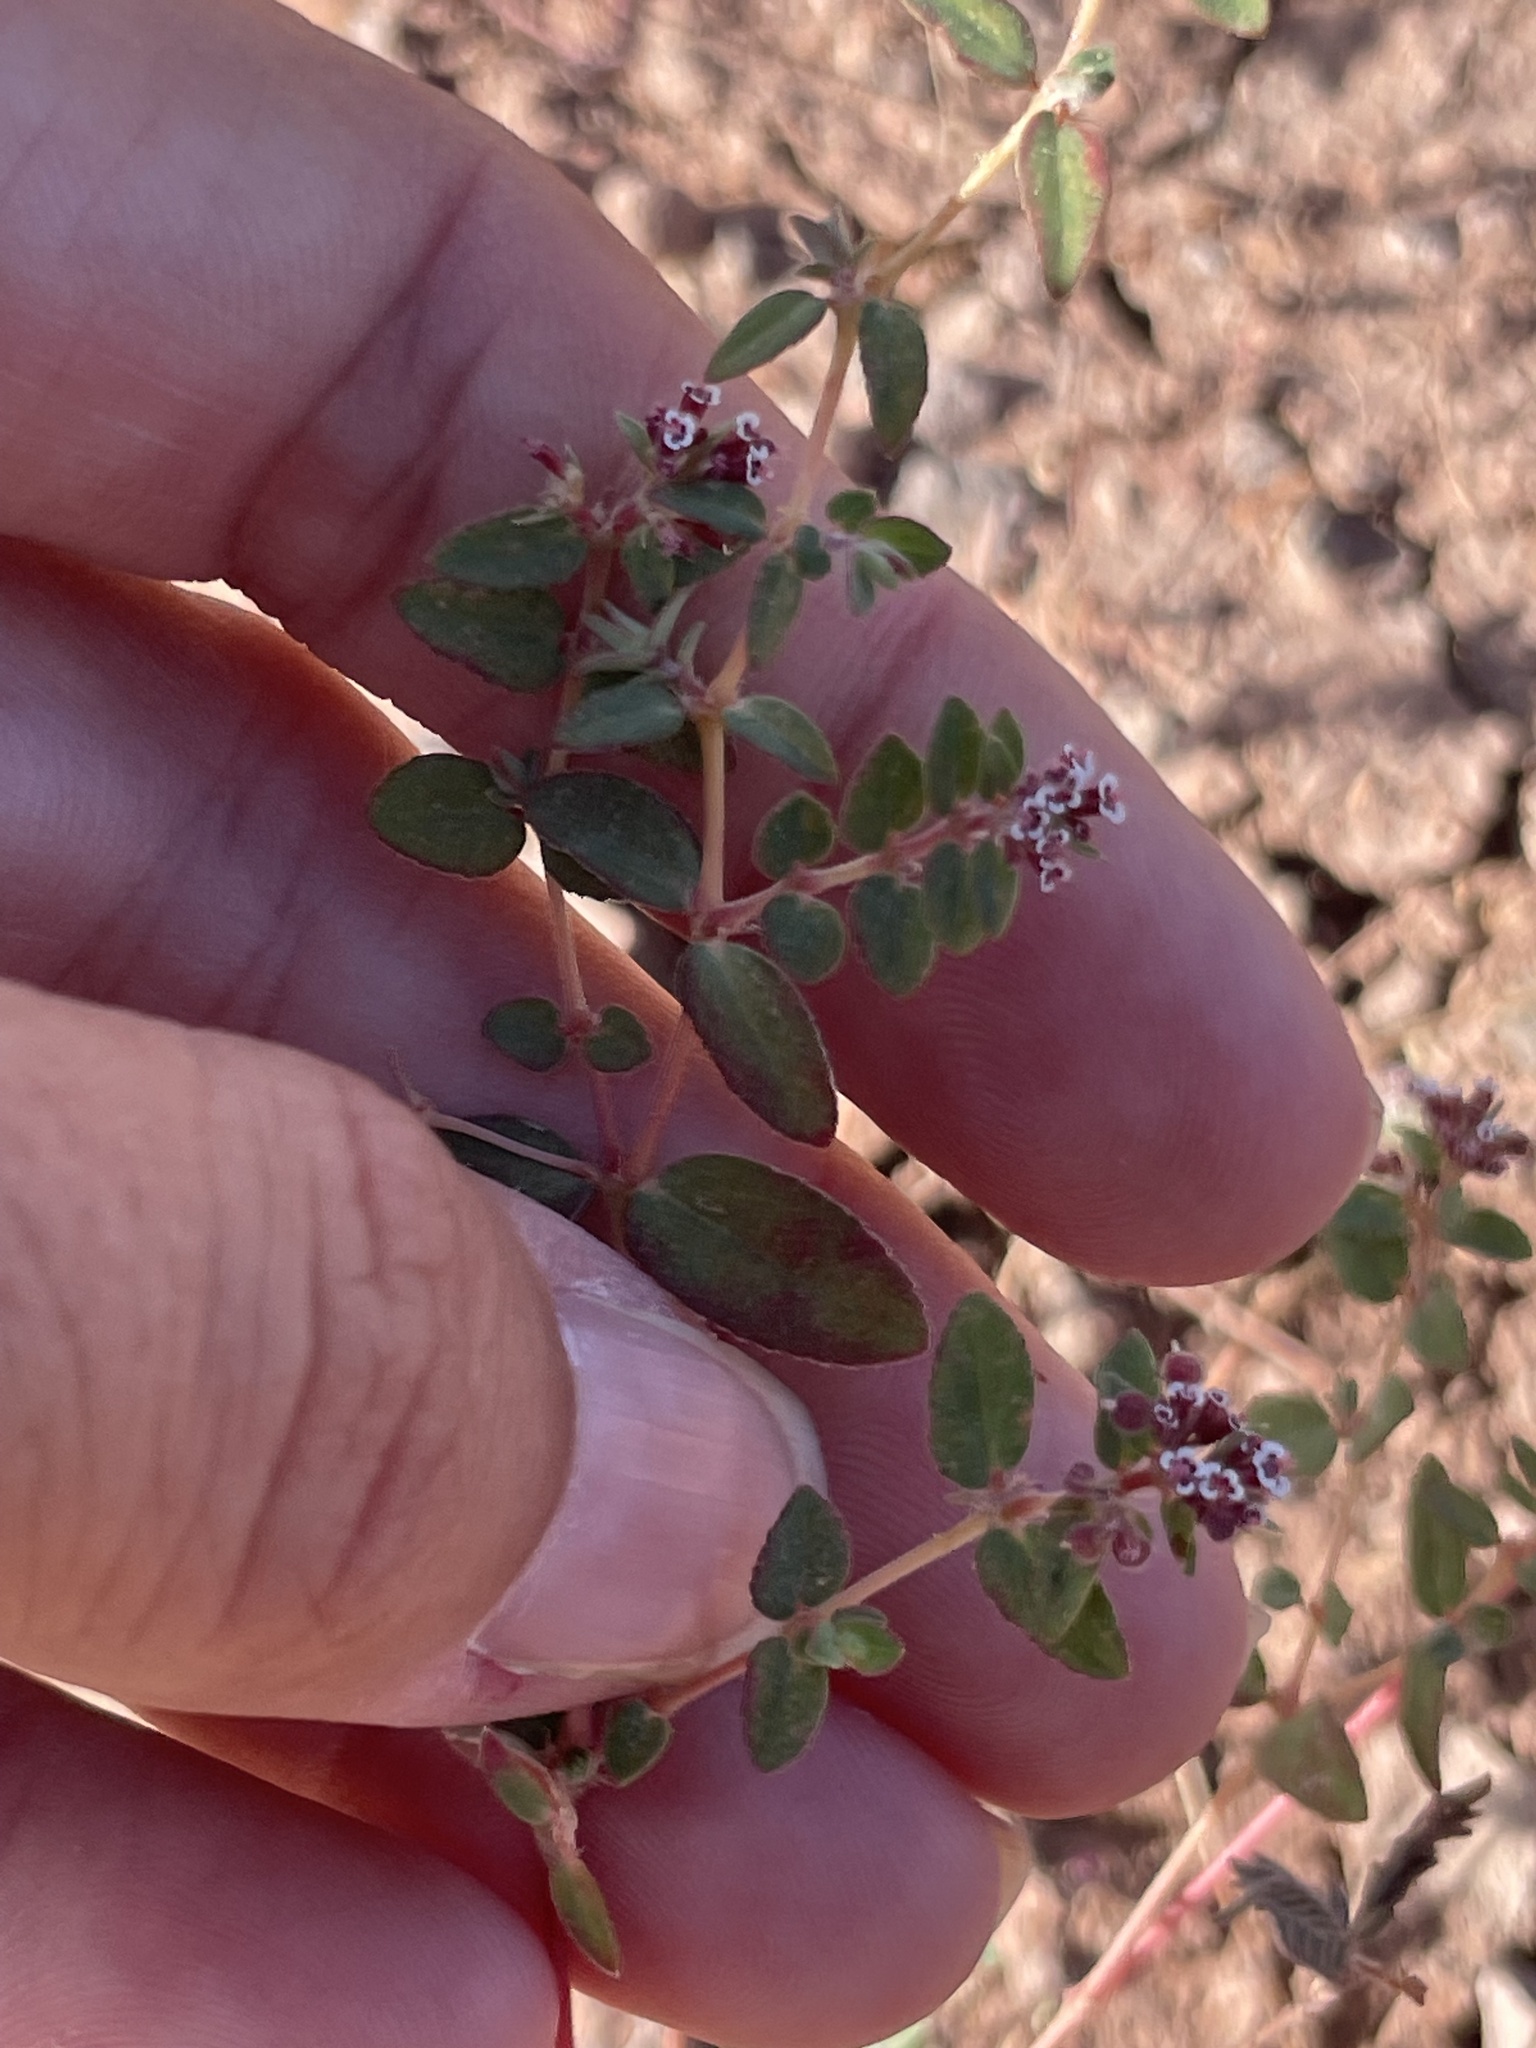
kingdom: Plantae
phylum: Tracheophyta
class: Magnoliopsida
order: Malpighiales
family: Euphorbiaceae
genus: Euphorbia
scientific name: Euphorbia capitellata
